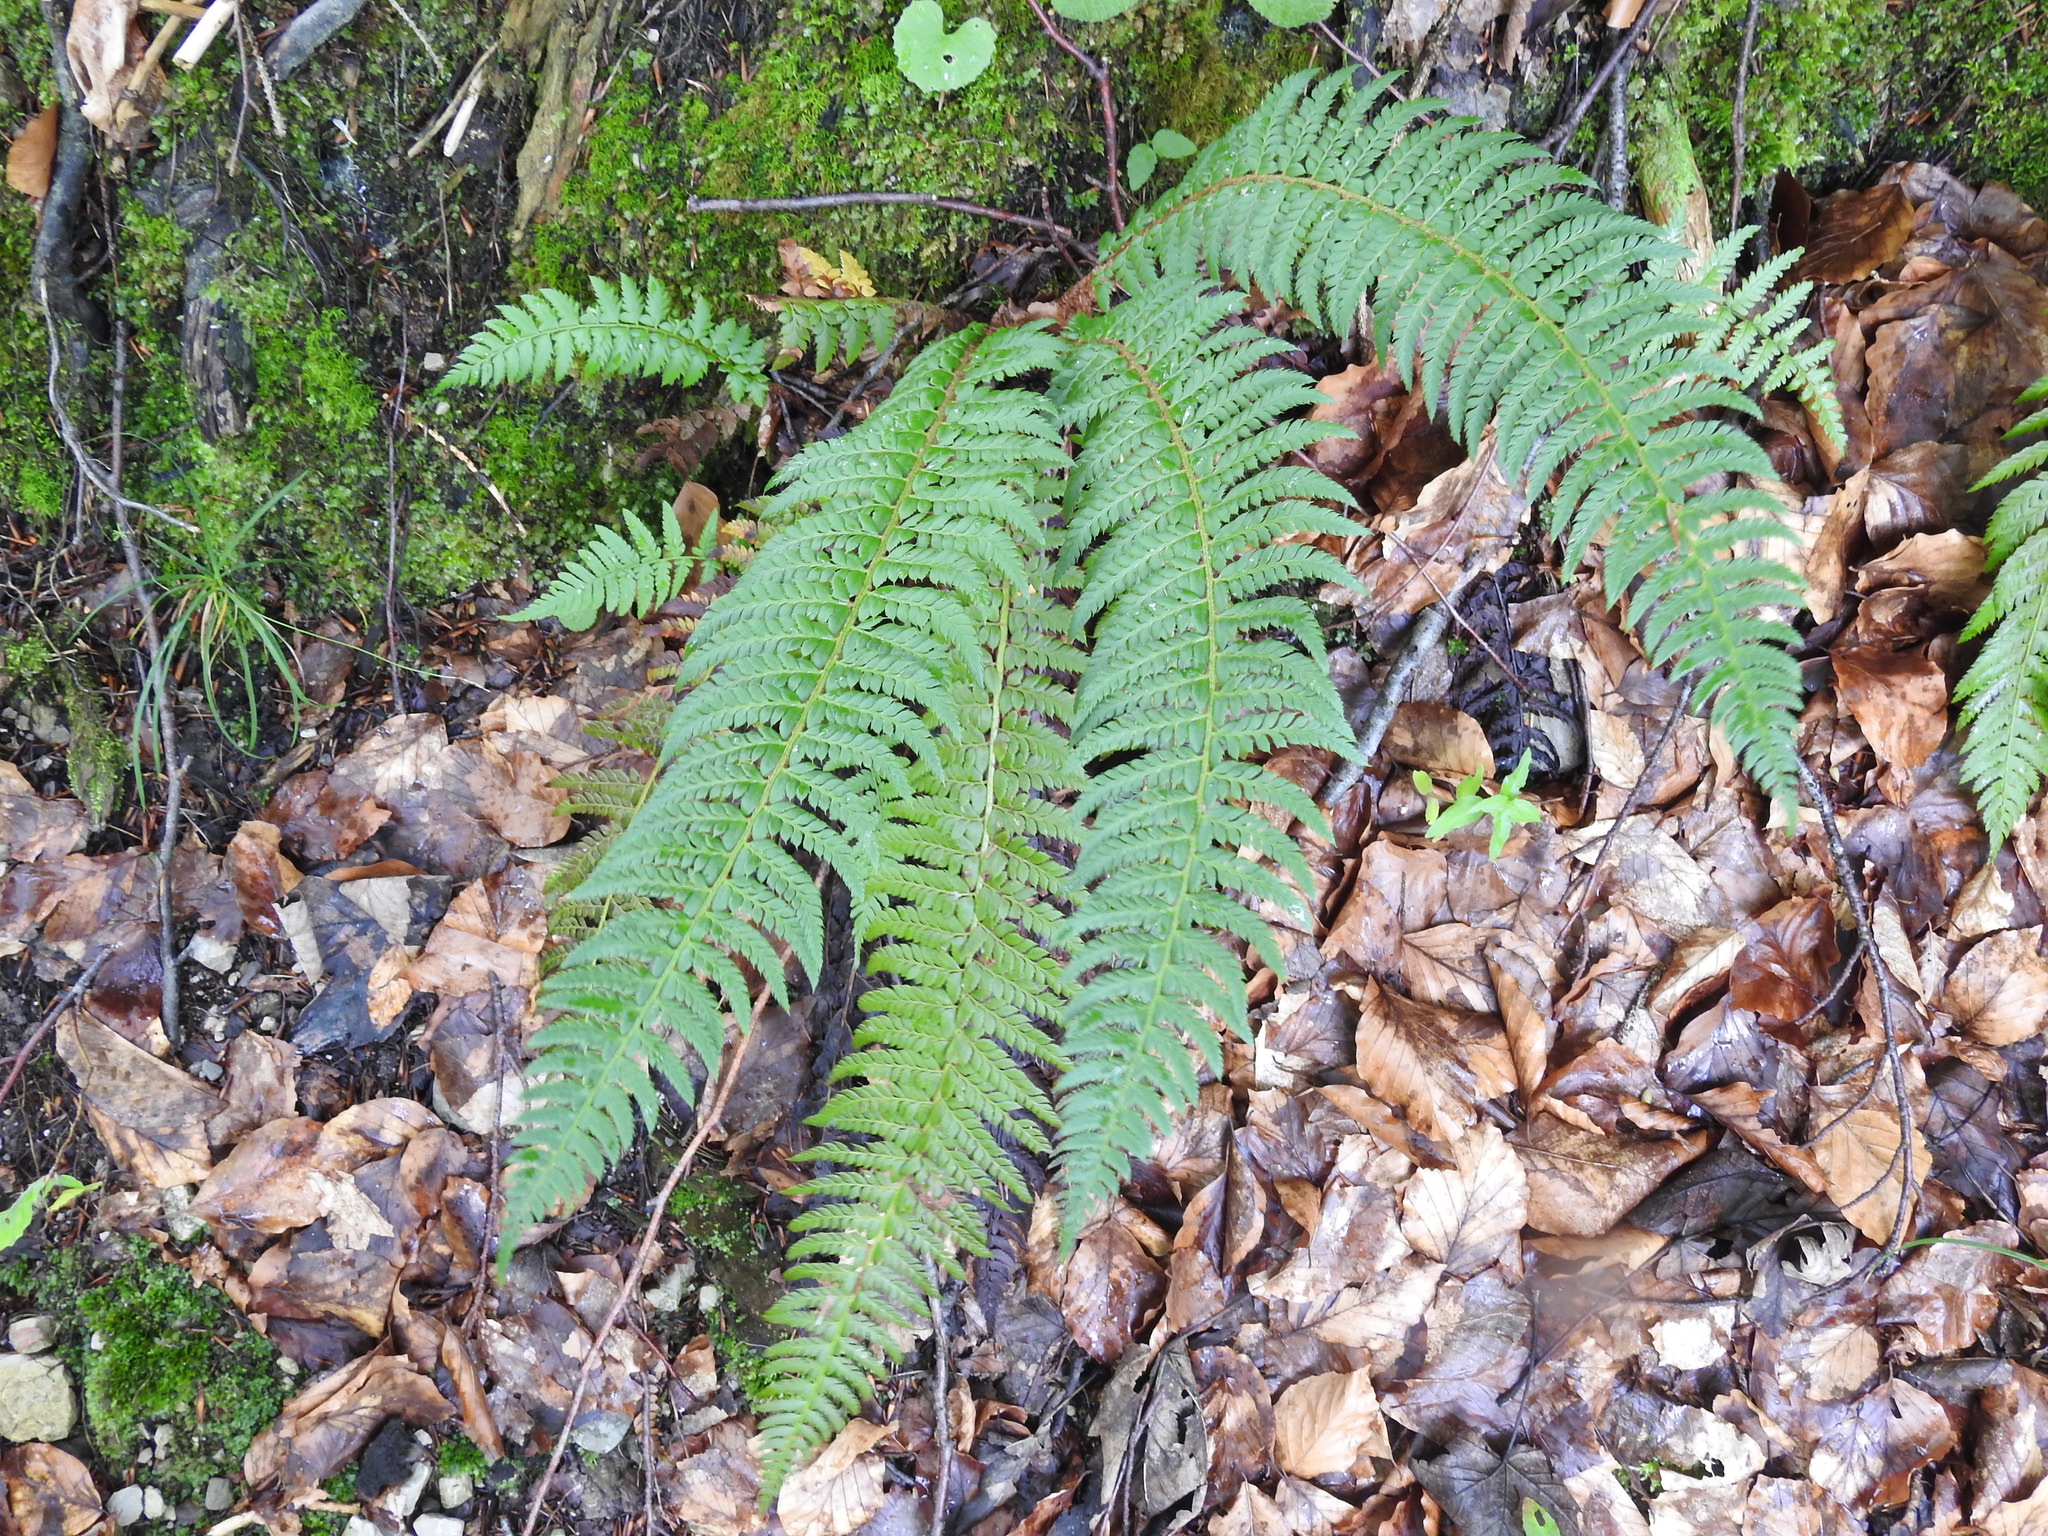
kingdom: Plantae
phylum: Tracheophyta
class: Polypodiopsida
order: Polypodiales
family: Dryopteridaceae
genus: Polystichum
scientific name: Polystichum aculeatum
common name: Hard shield-fern
